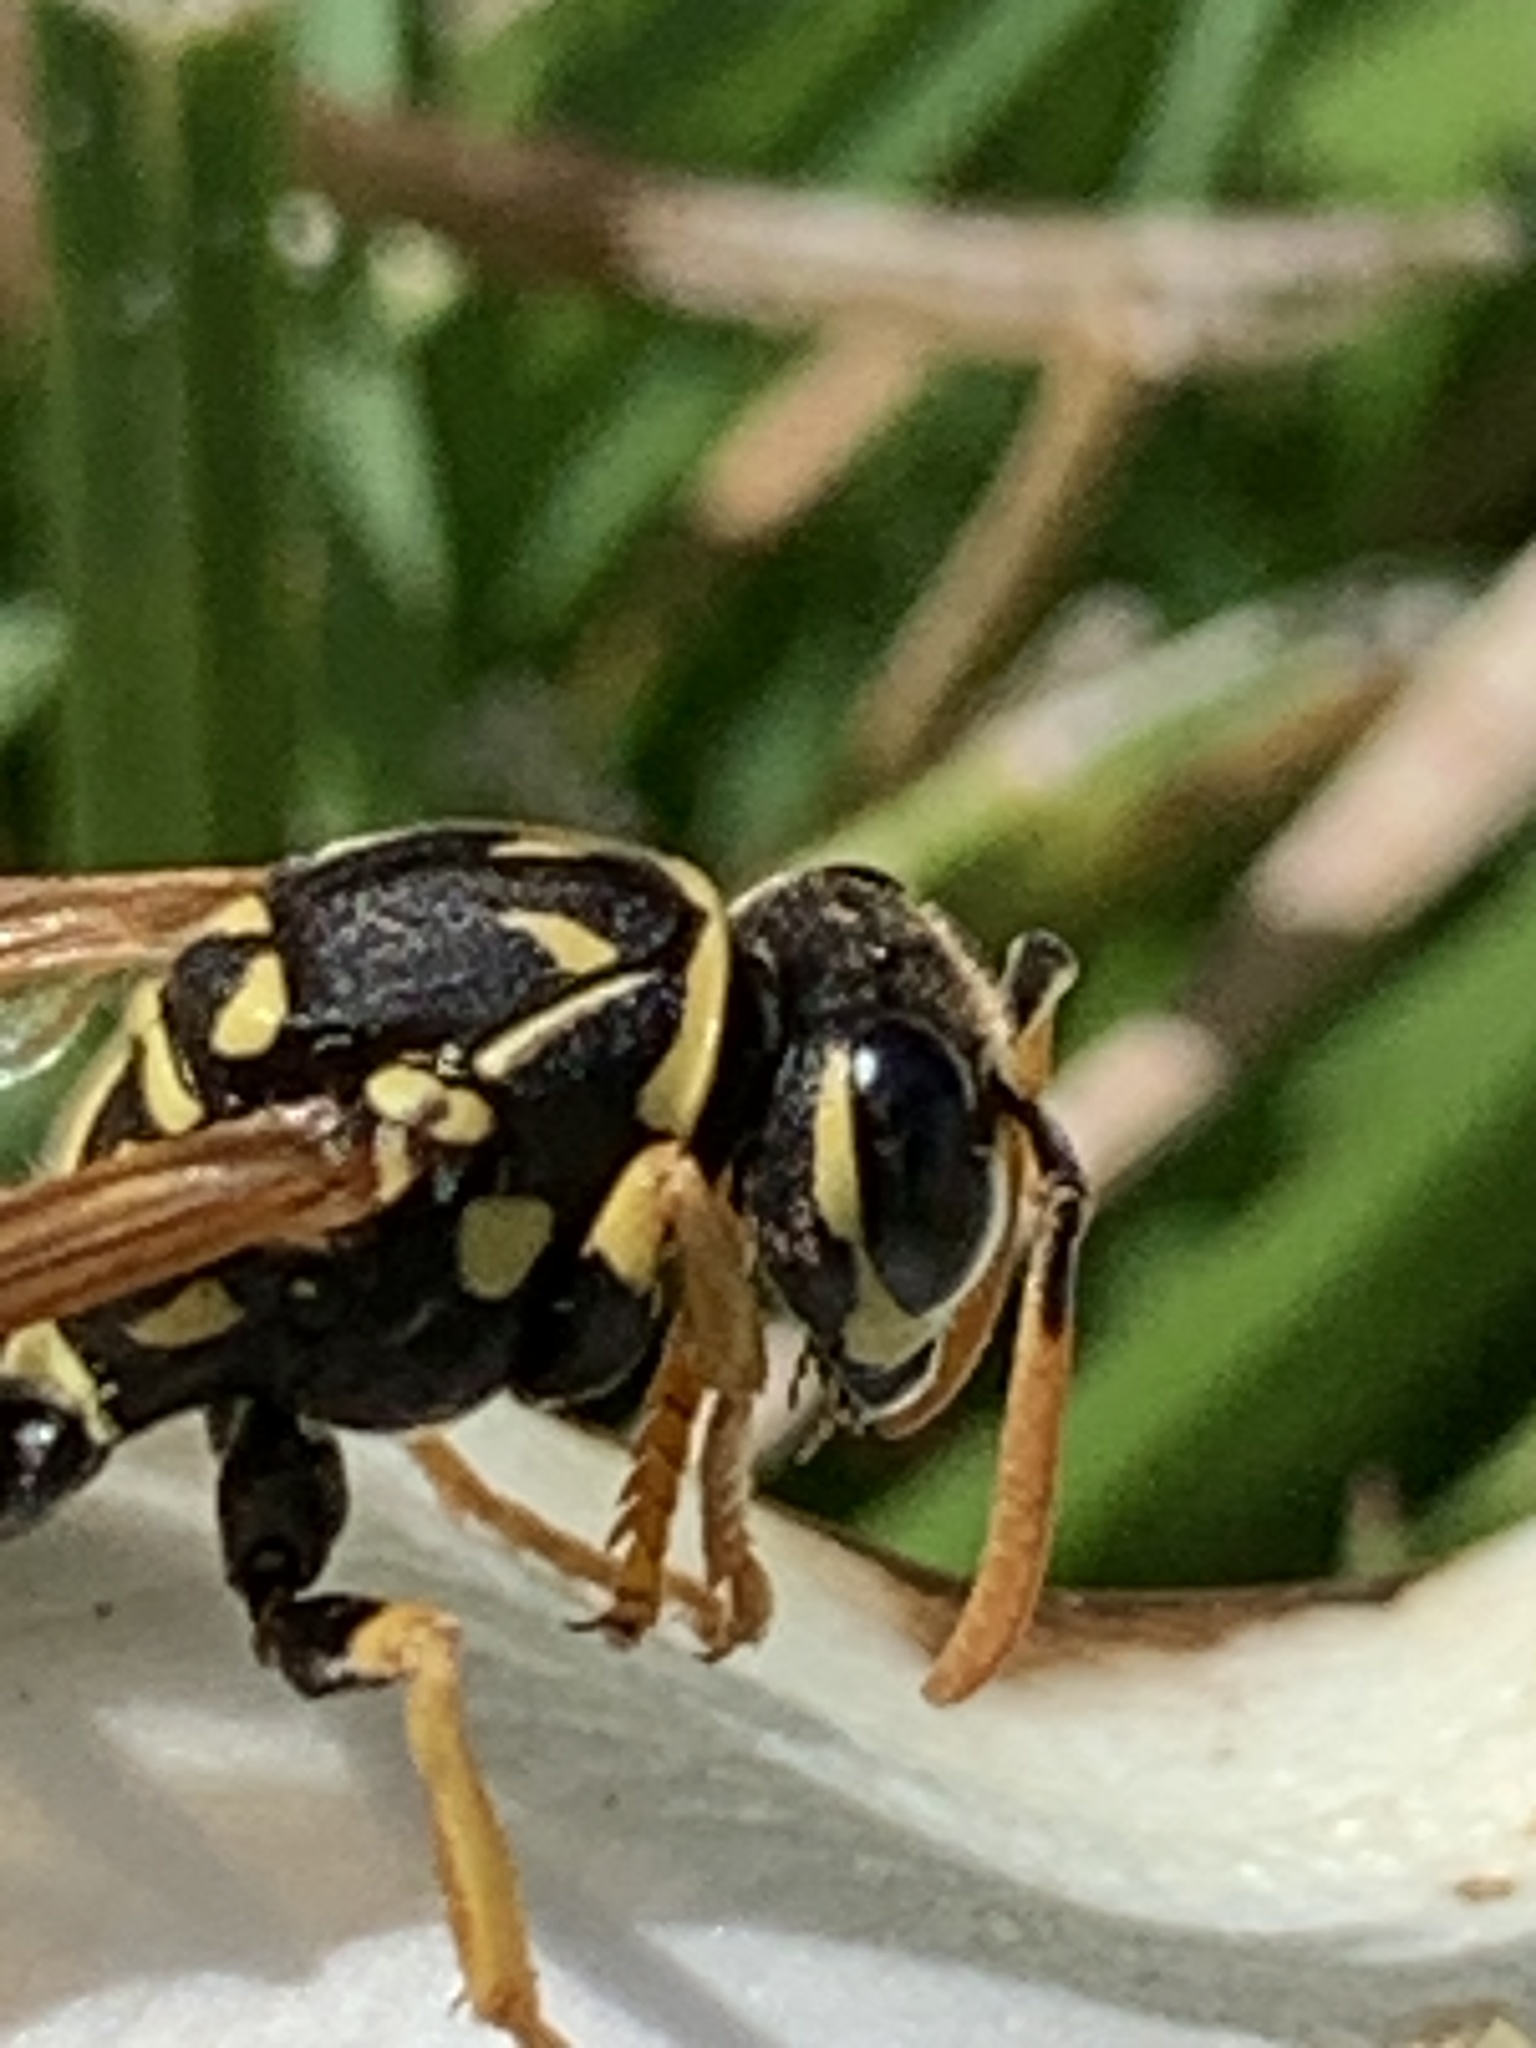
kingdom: Animalia
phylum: Arthropoda
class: Insecta
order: Hymenoptera
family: Eumenidae
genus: Polistes
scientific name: Polistes dominula
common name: Paper wasp
